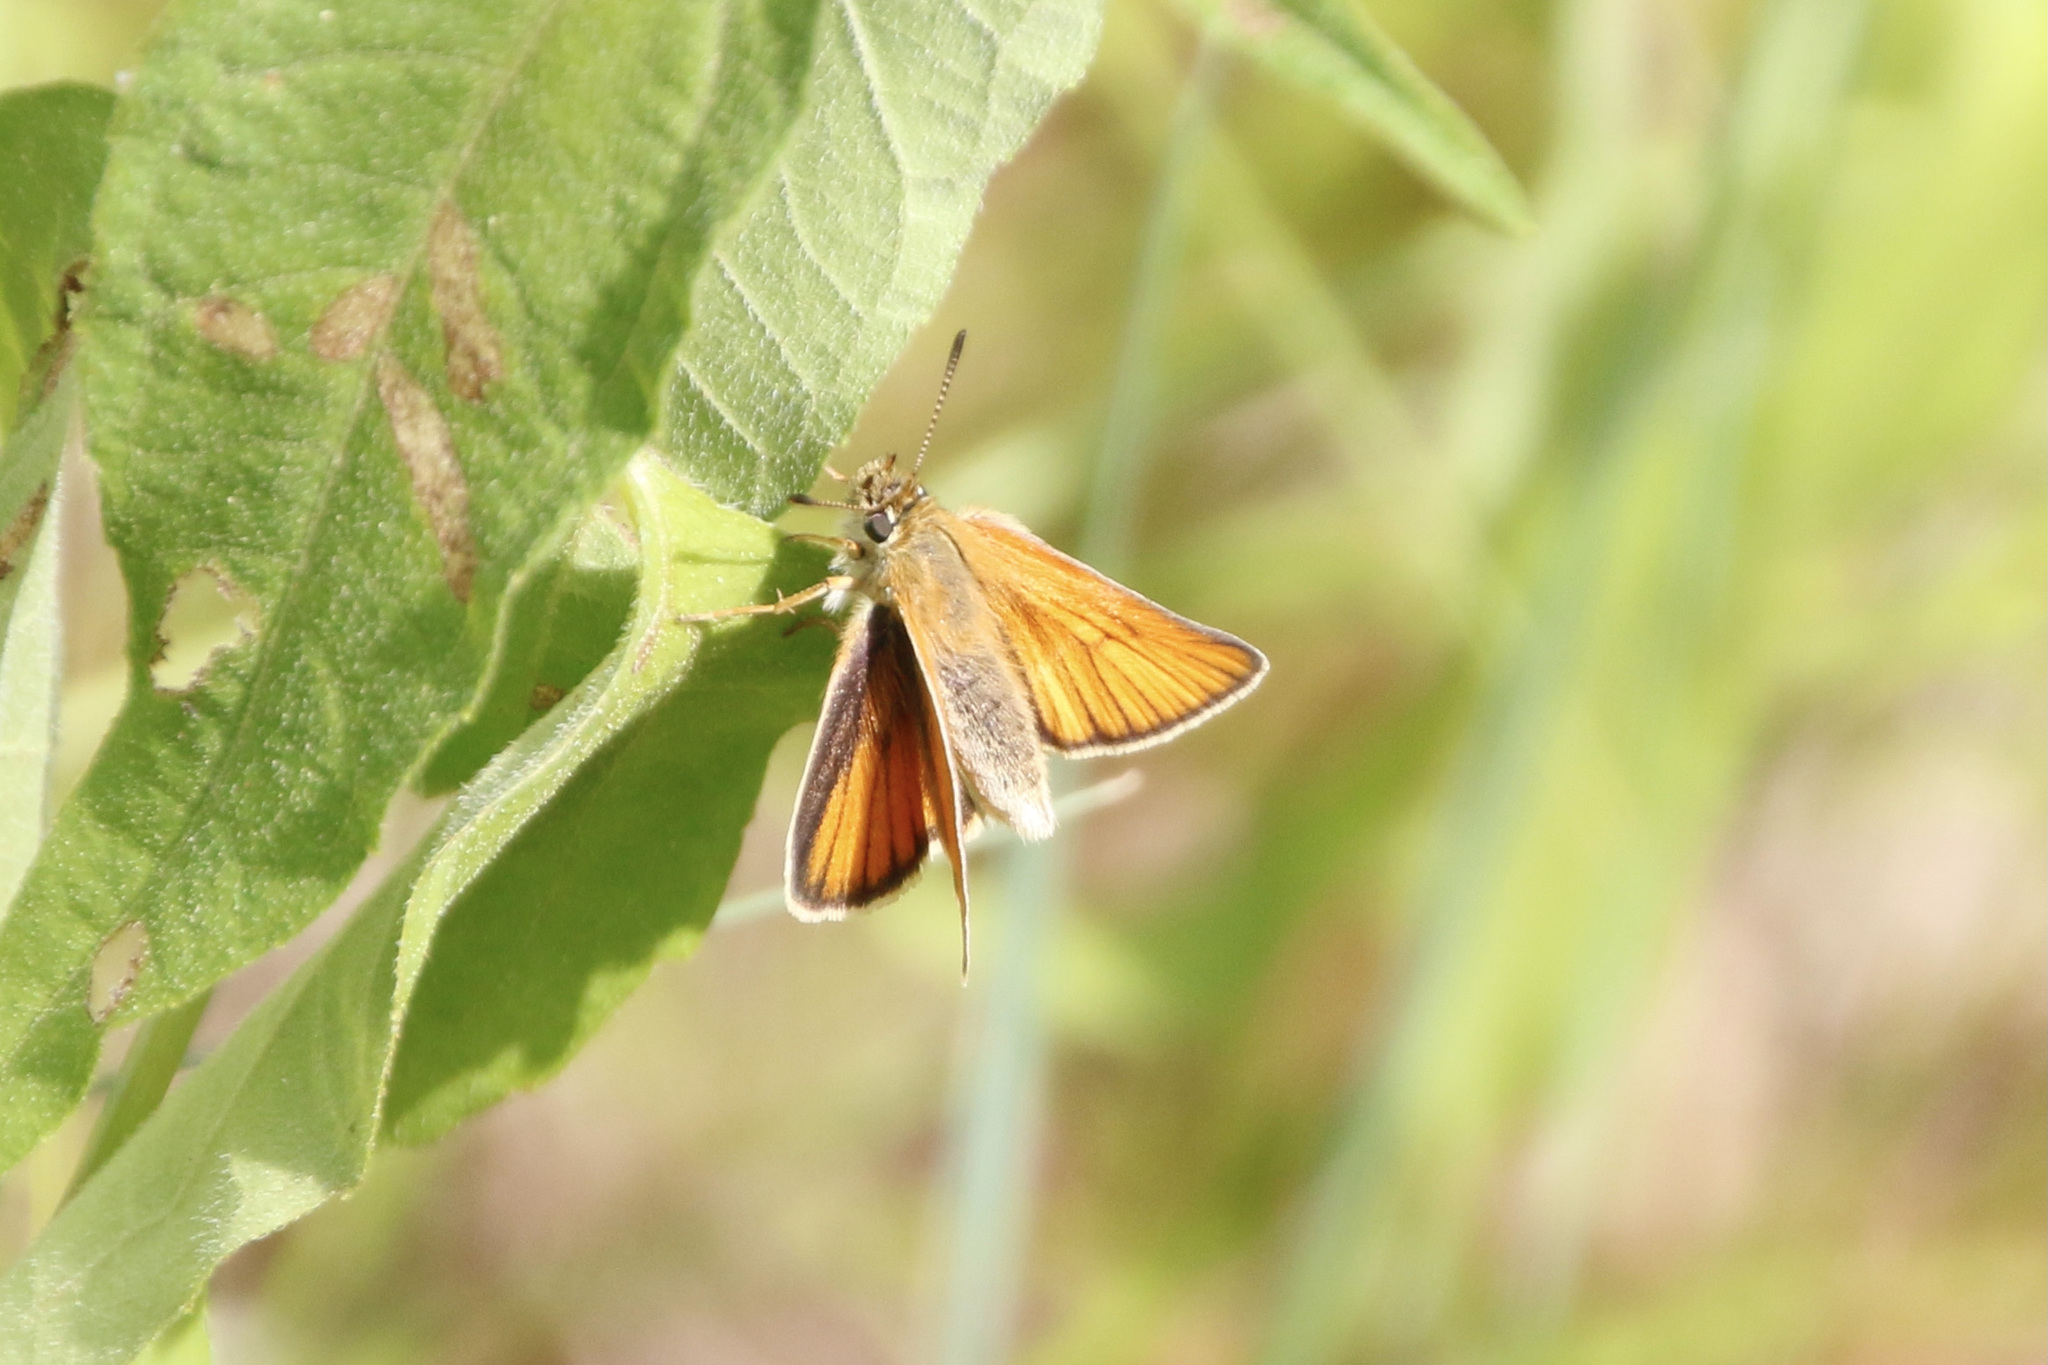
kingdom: Animalia
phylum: Arthropoda
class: Insecta
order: Lepidoptera
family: Hesperiidae
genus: Thymelicus
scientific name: Thymelicus lineola
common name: Essex skipper
